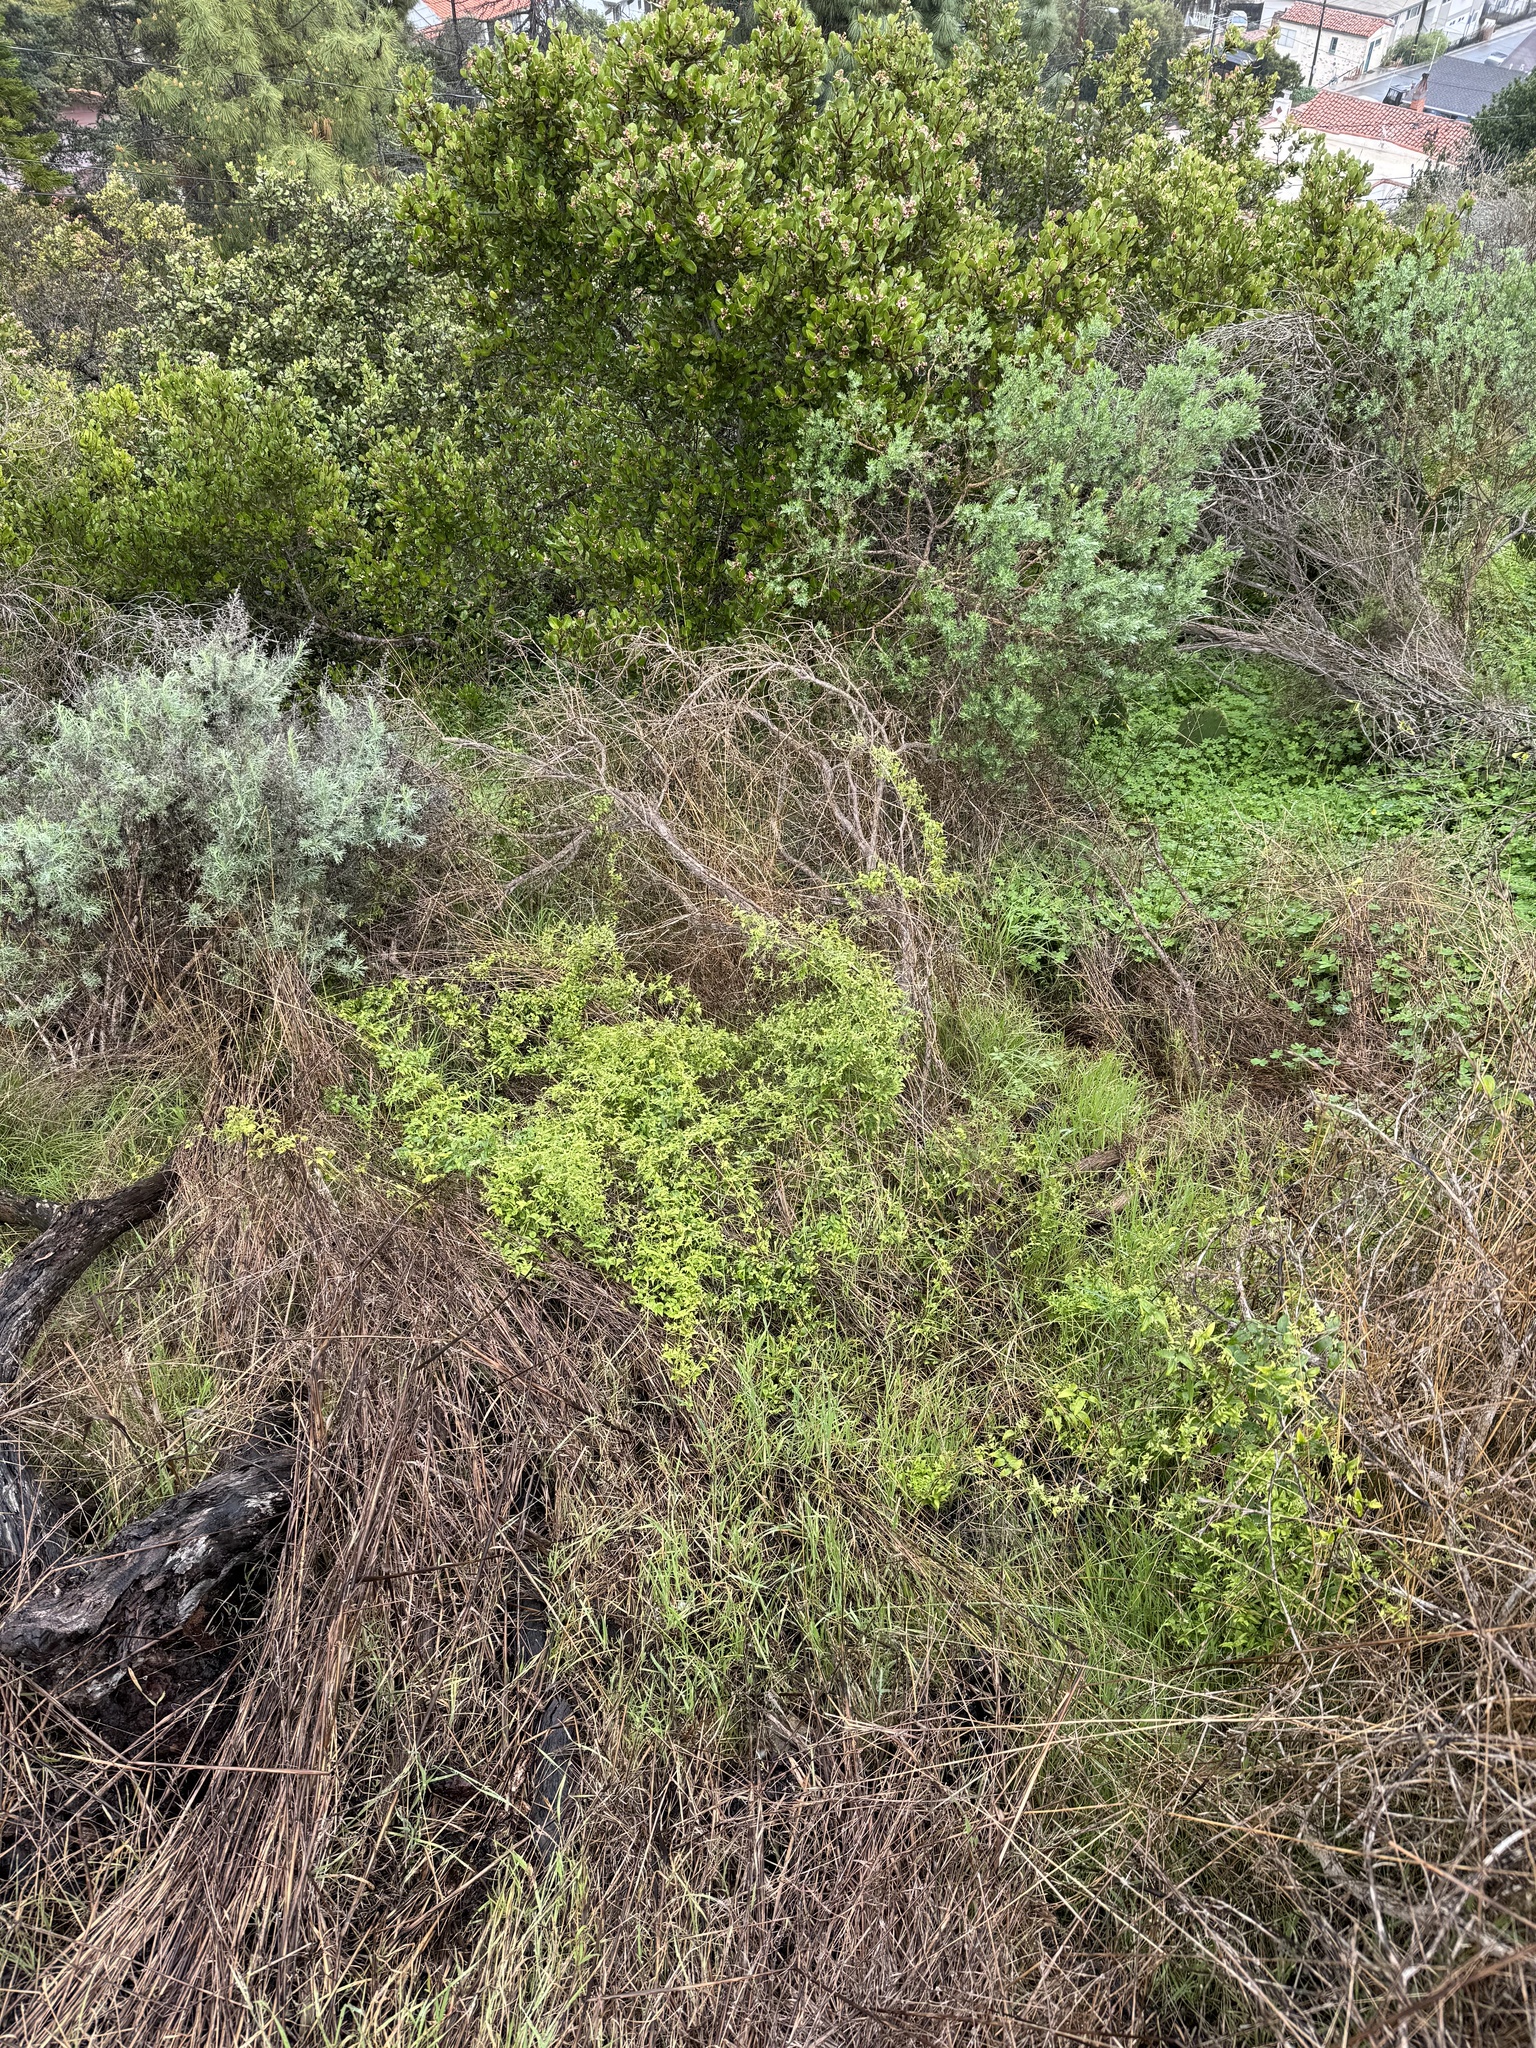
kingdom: Plantae
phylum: Tracheophyta
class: Liliopsida
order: Asparagales
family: Asparagaceae
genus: Asparagus
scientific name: Asparagus asparagoides
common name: African asparagus fern
